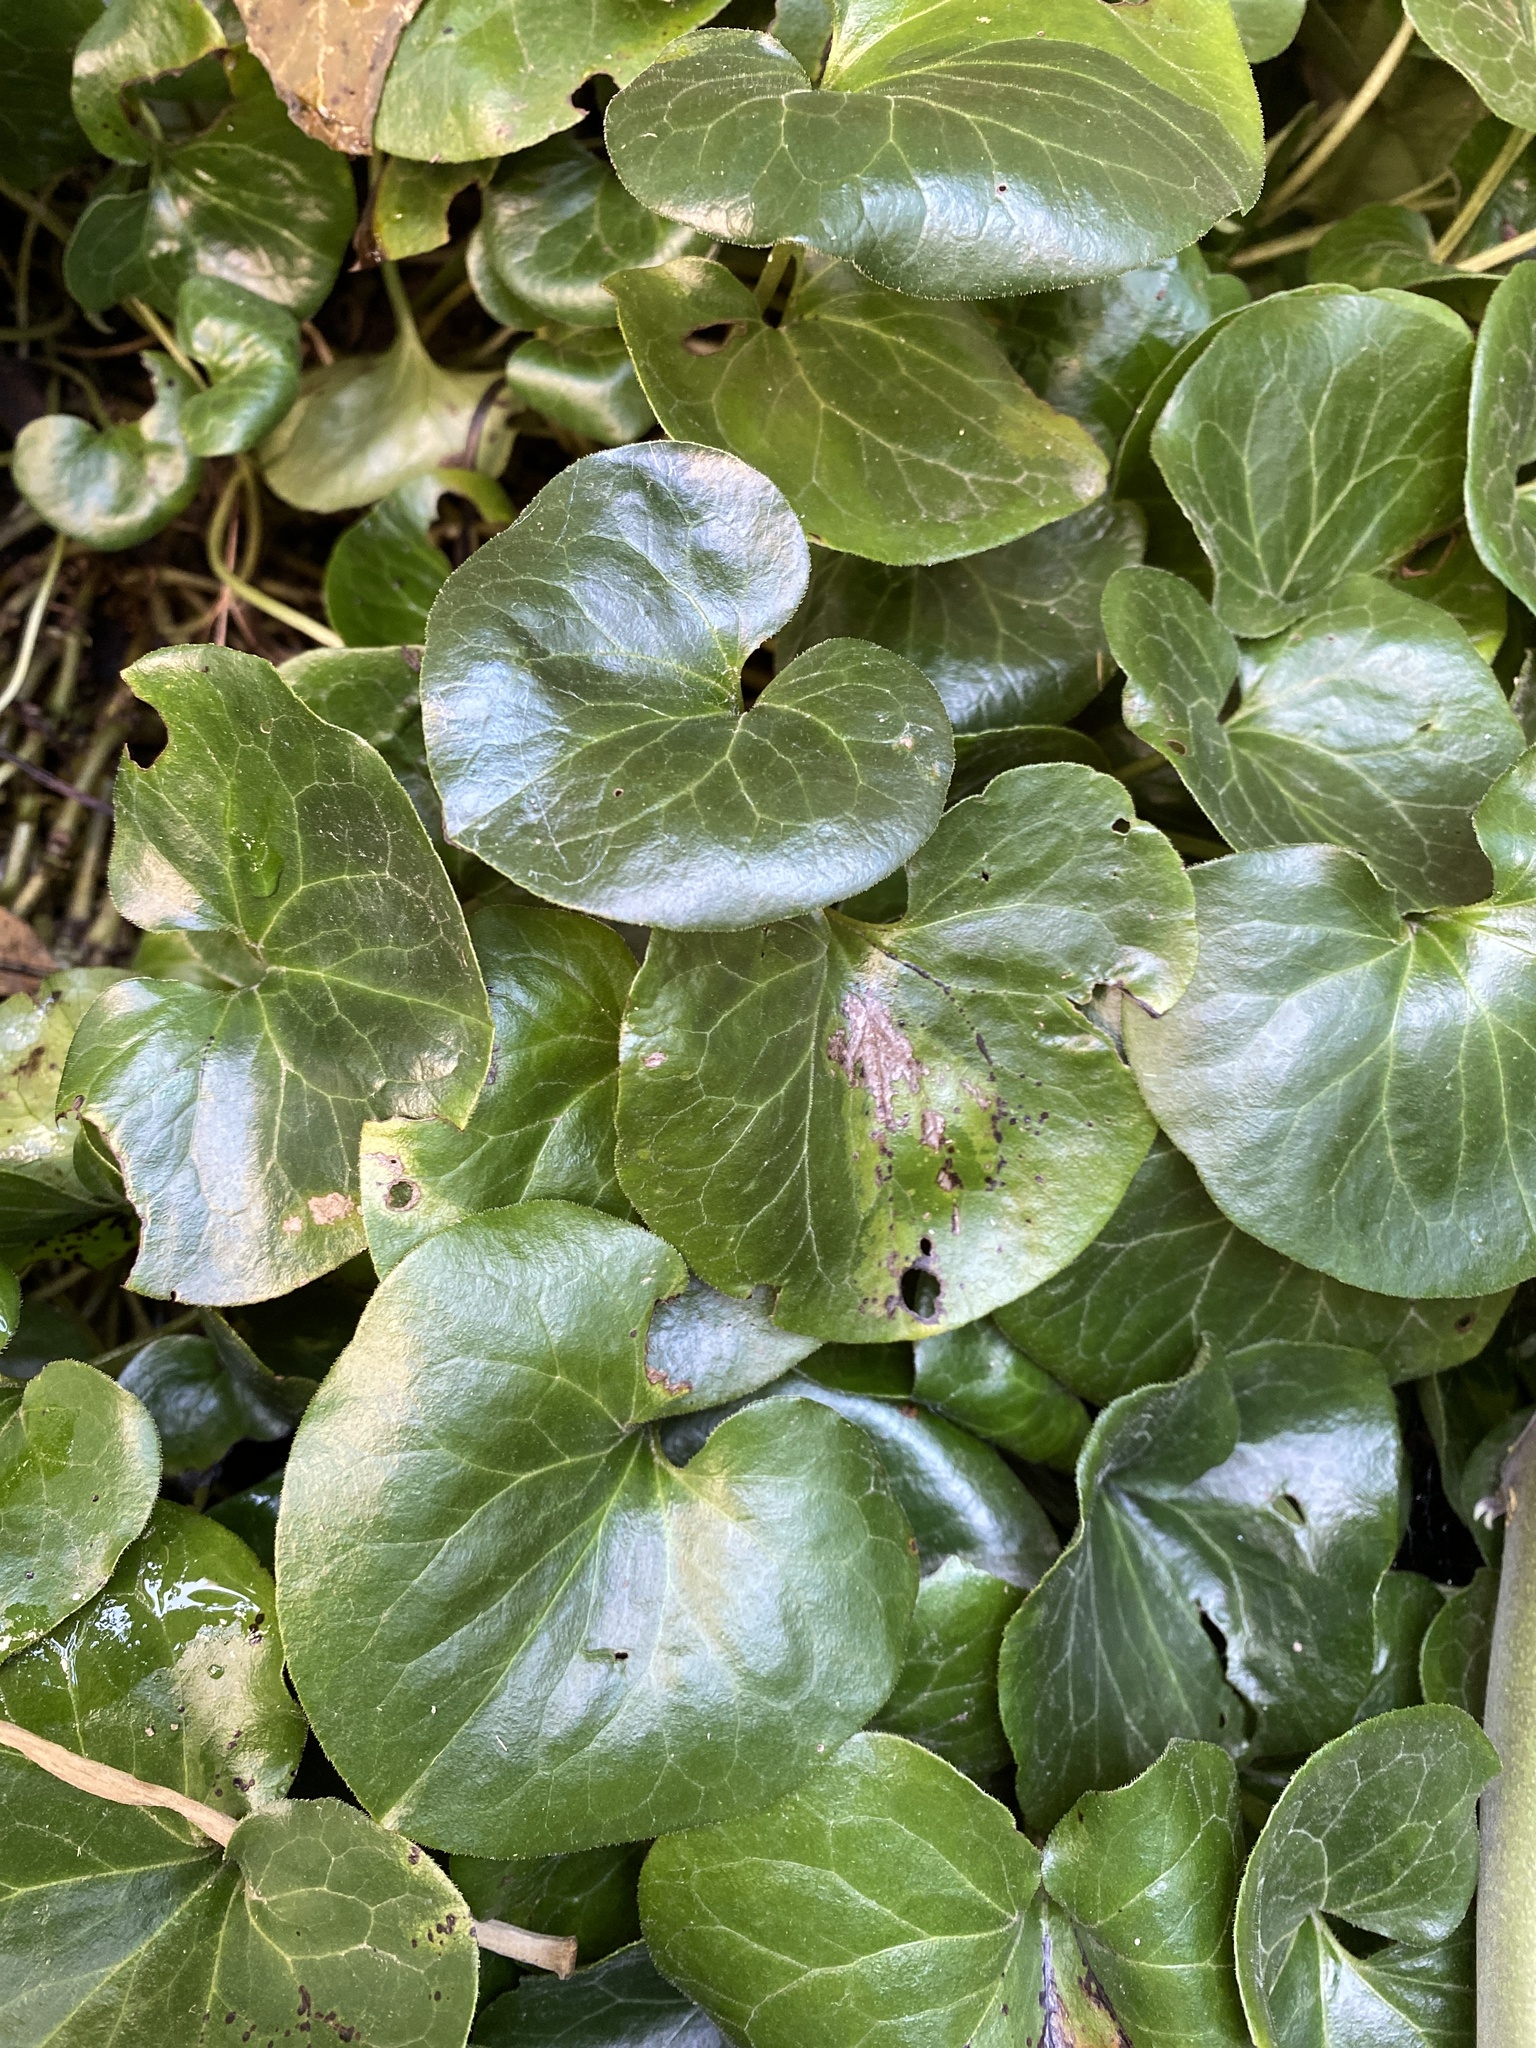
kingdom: Plantae
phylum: Tracheophyta
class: Magnoliopsida
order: Piperales
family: Aristolochiaceae
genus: Asarum
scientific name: Asarum europaeum
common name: Asarabacca
